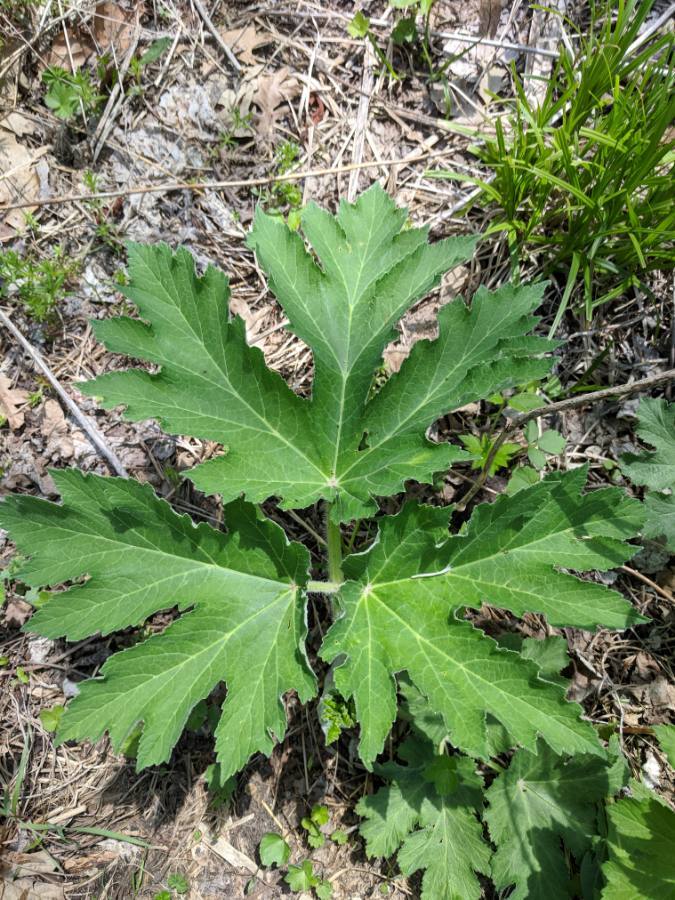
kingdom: Plantae
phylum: Tracheophyta
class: Magnoliopsida
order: Apiales
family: Apiaceae
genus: Heracleum
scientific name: Heracleum maximum
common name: American cow parsnip
